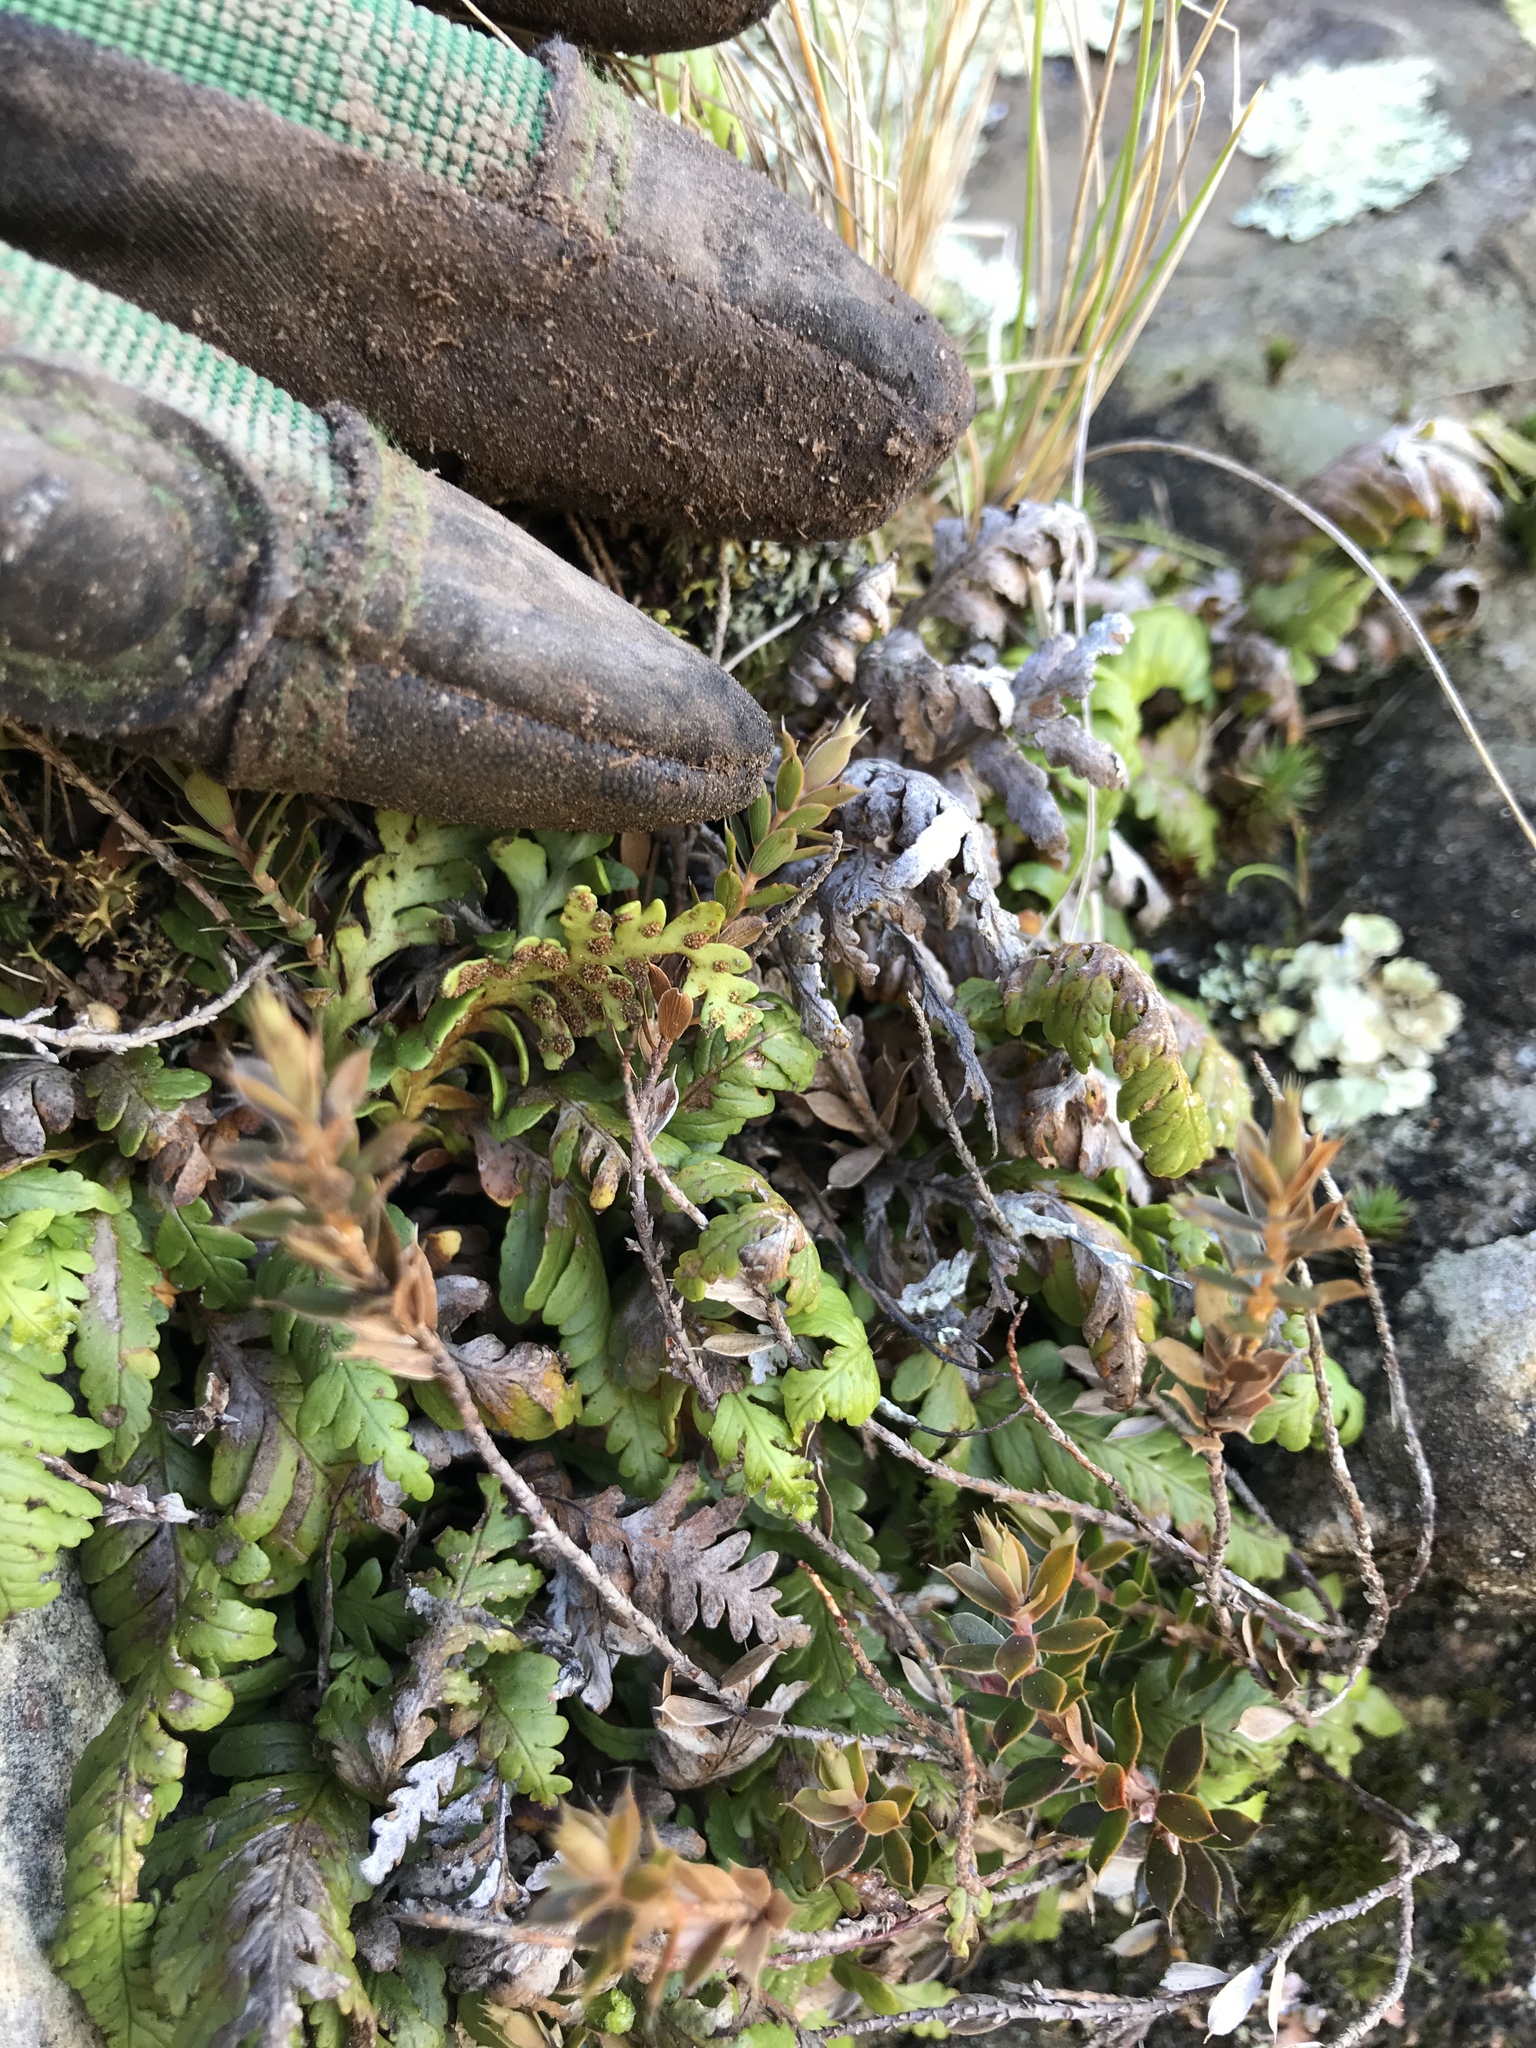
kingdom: Plantae
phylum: Tracheophyta
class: Polypodiopsida
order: Polypodiales
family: Polypodiaceae
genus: Notogrammitis
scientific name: Notogrammitis heterophylla
